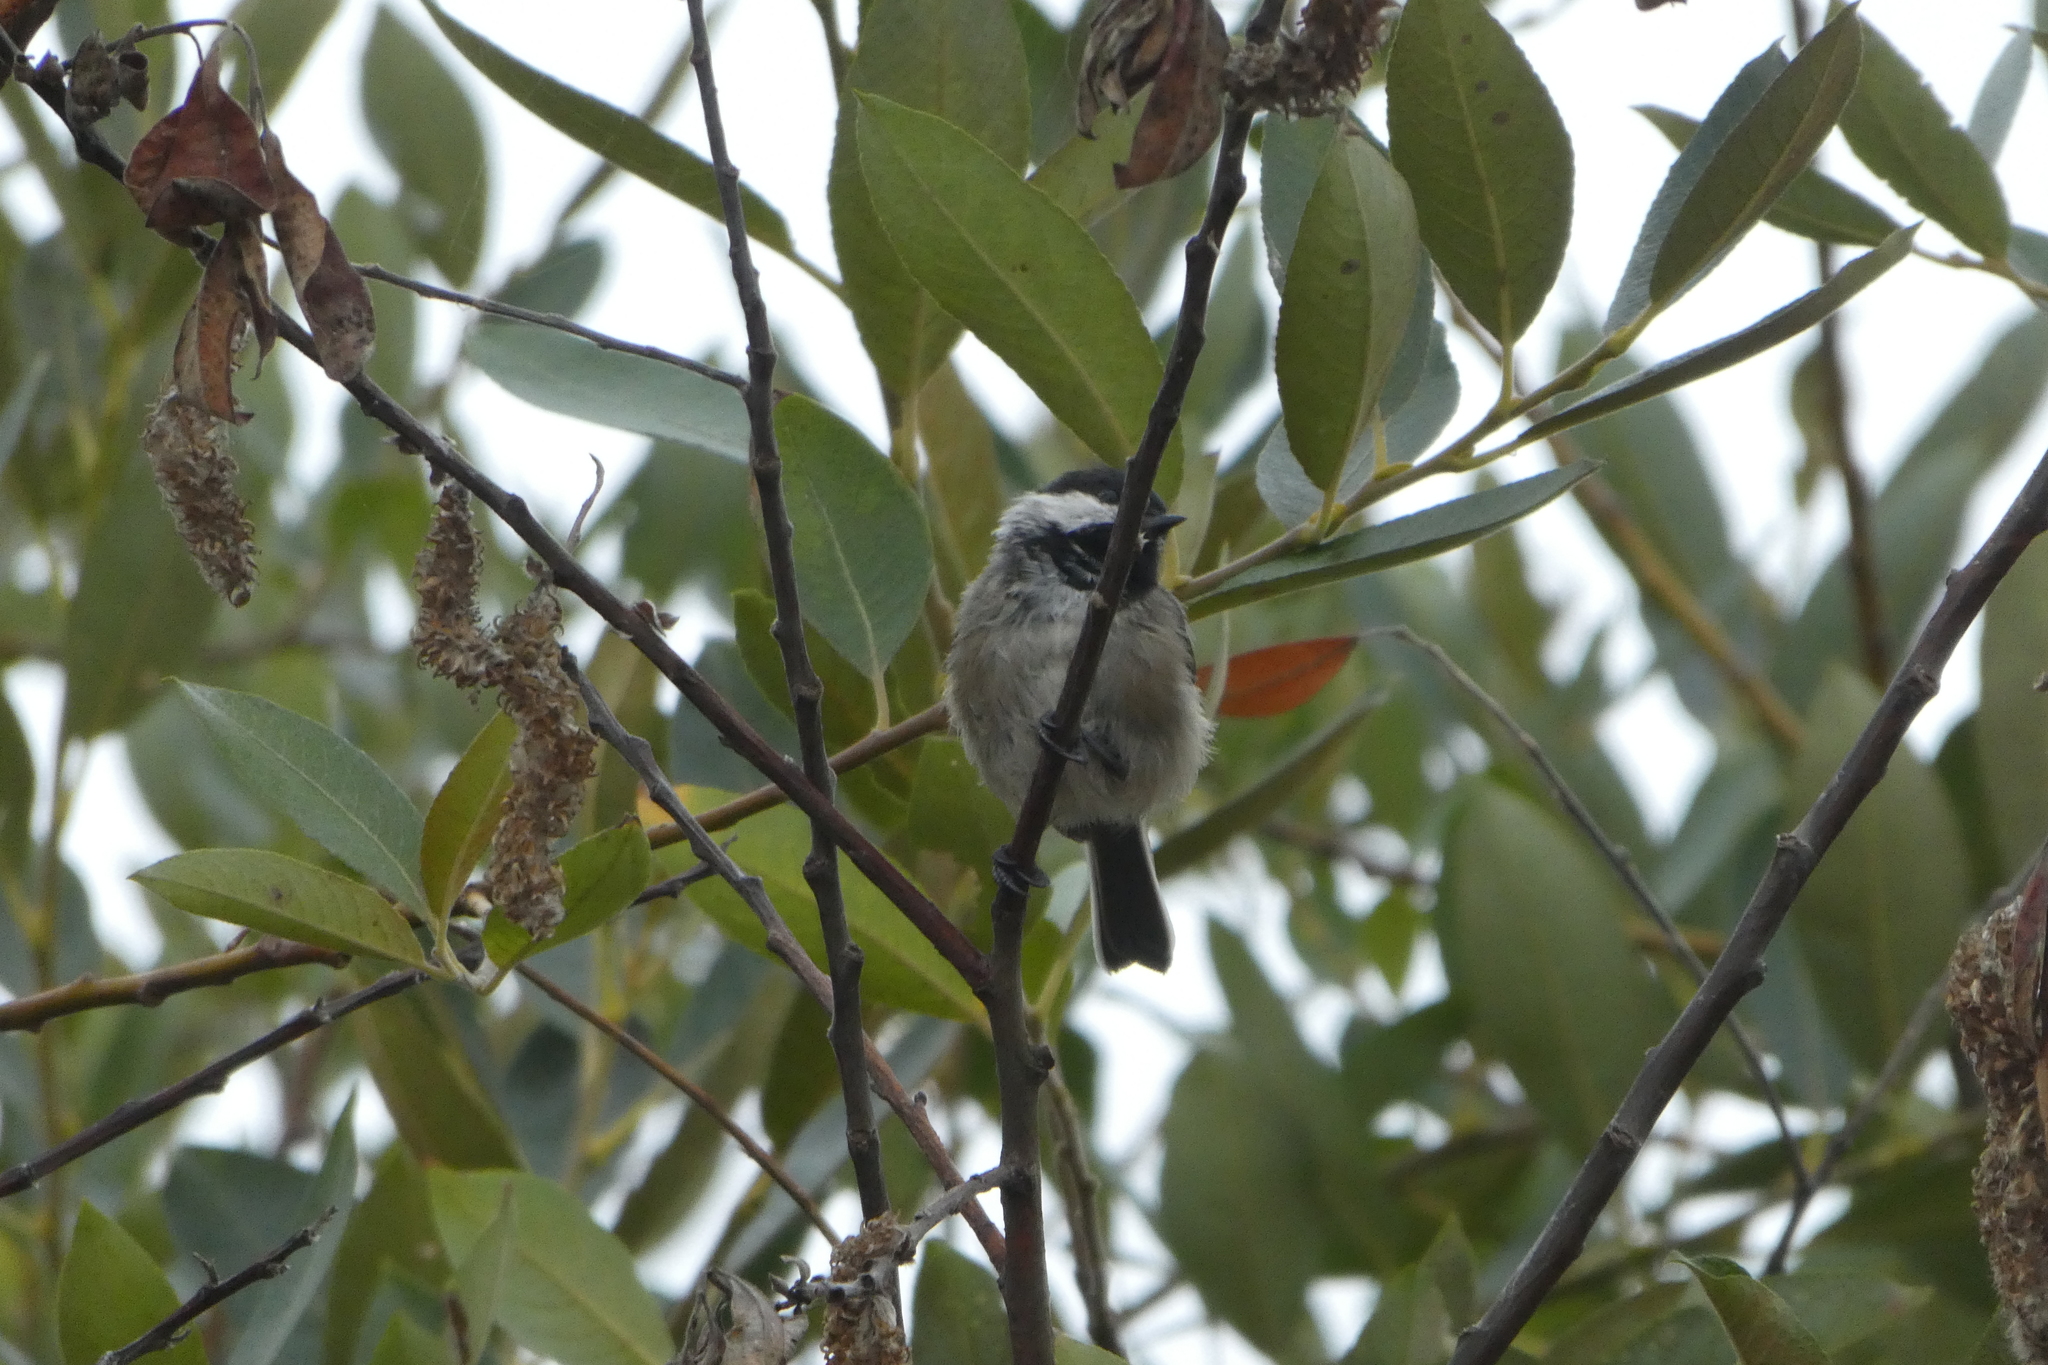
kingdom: Animalia
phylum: Chordata
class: Aves
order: Passeriformes
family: Paridae
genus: Poecile
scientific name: Poecile atricapillus
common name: Black-capped chickadee
